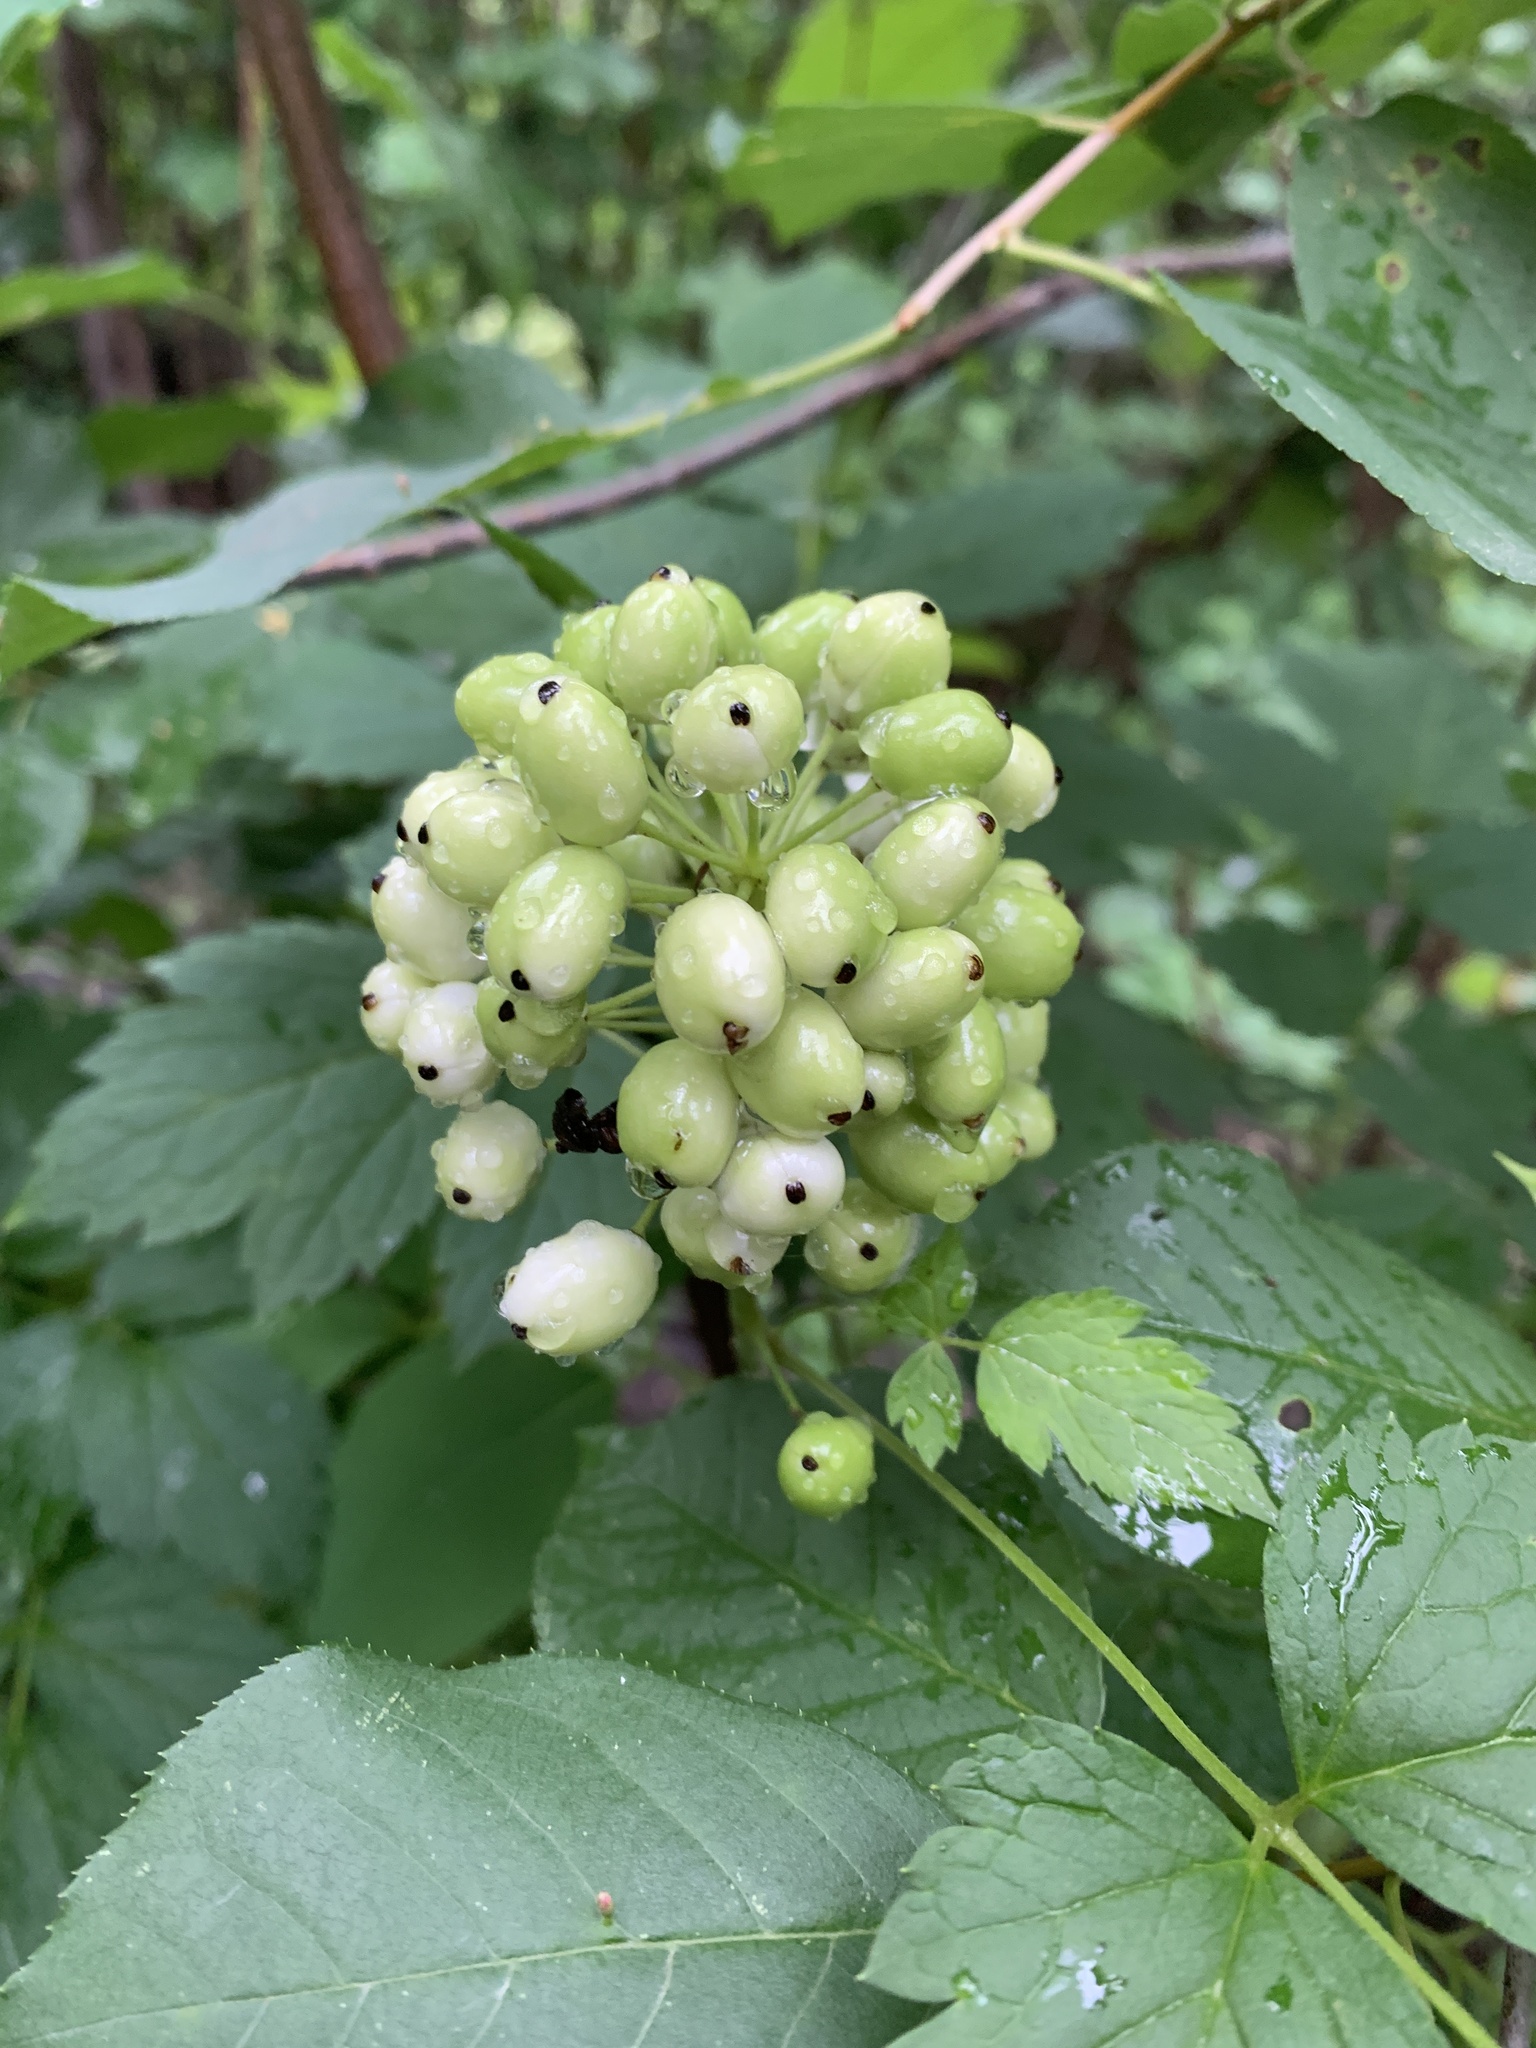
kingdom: Plantae
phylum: Tracheophyta
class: Magnoliopsida
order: Ranunculales
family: Ranunculaceae
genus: Actaea
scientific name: Actaea rubra
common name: Red baneberry
